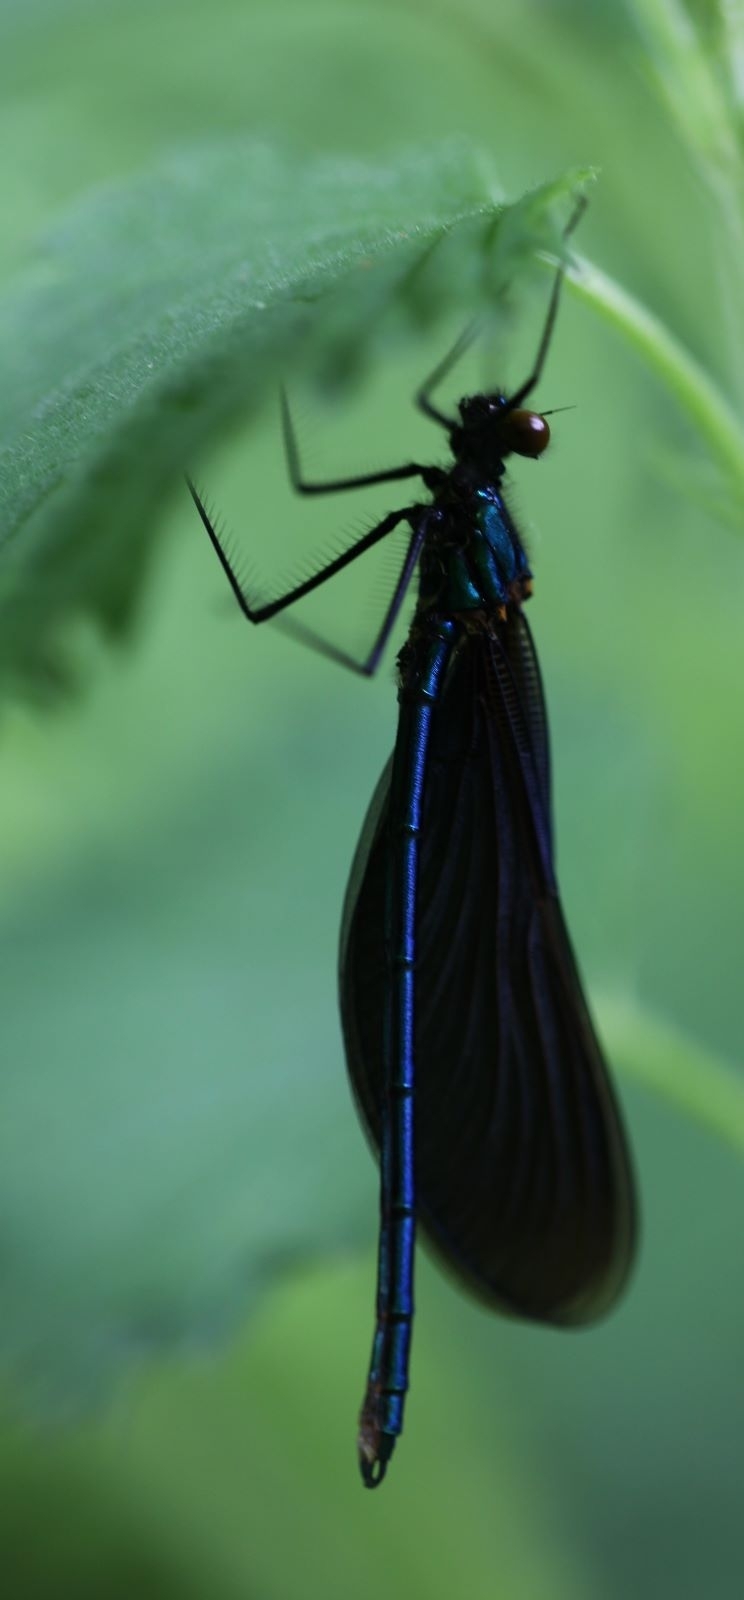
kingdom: Animalia
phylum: Arthropoda
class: Insecta
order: Odonata
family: Calopterygidae
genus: Calopteryx
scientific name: Calopteryx virgo
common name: Beautiful demoiselle
